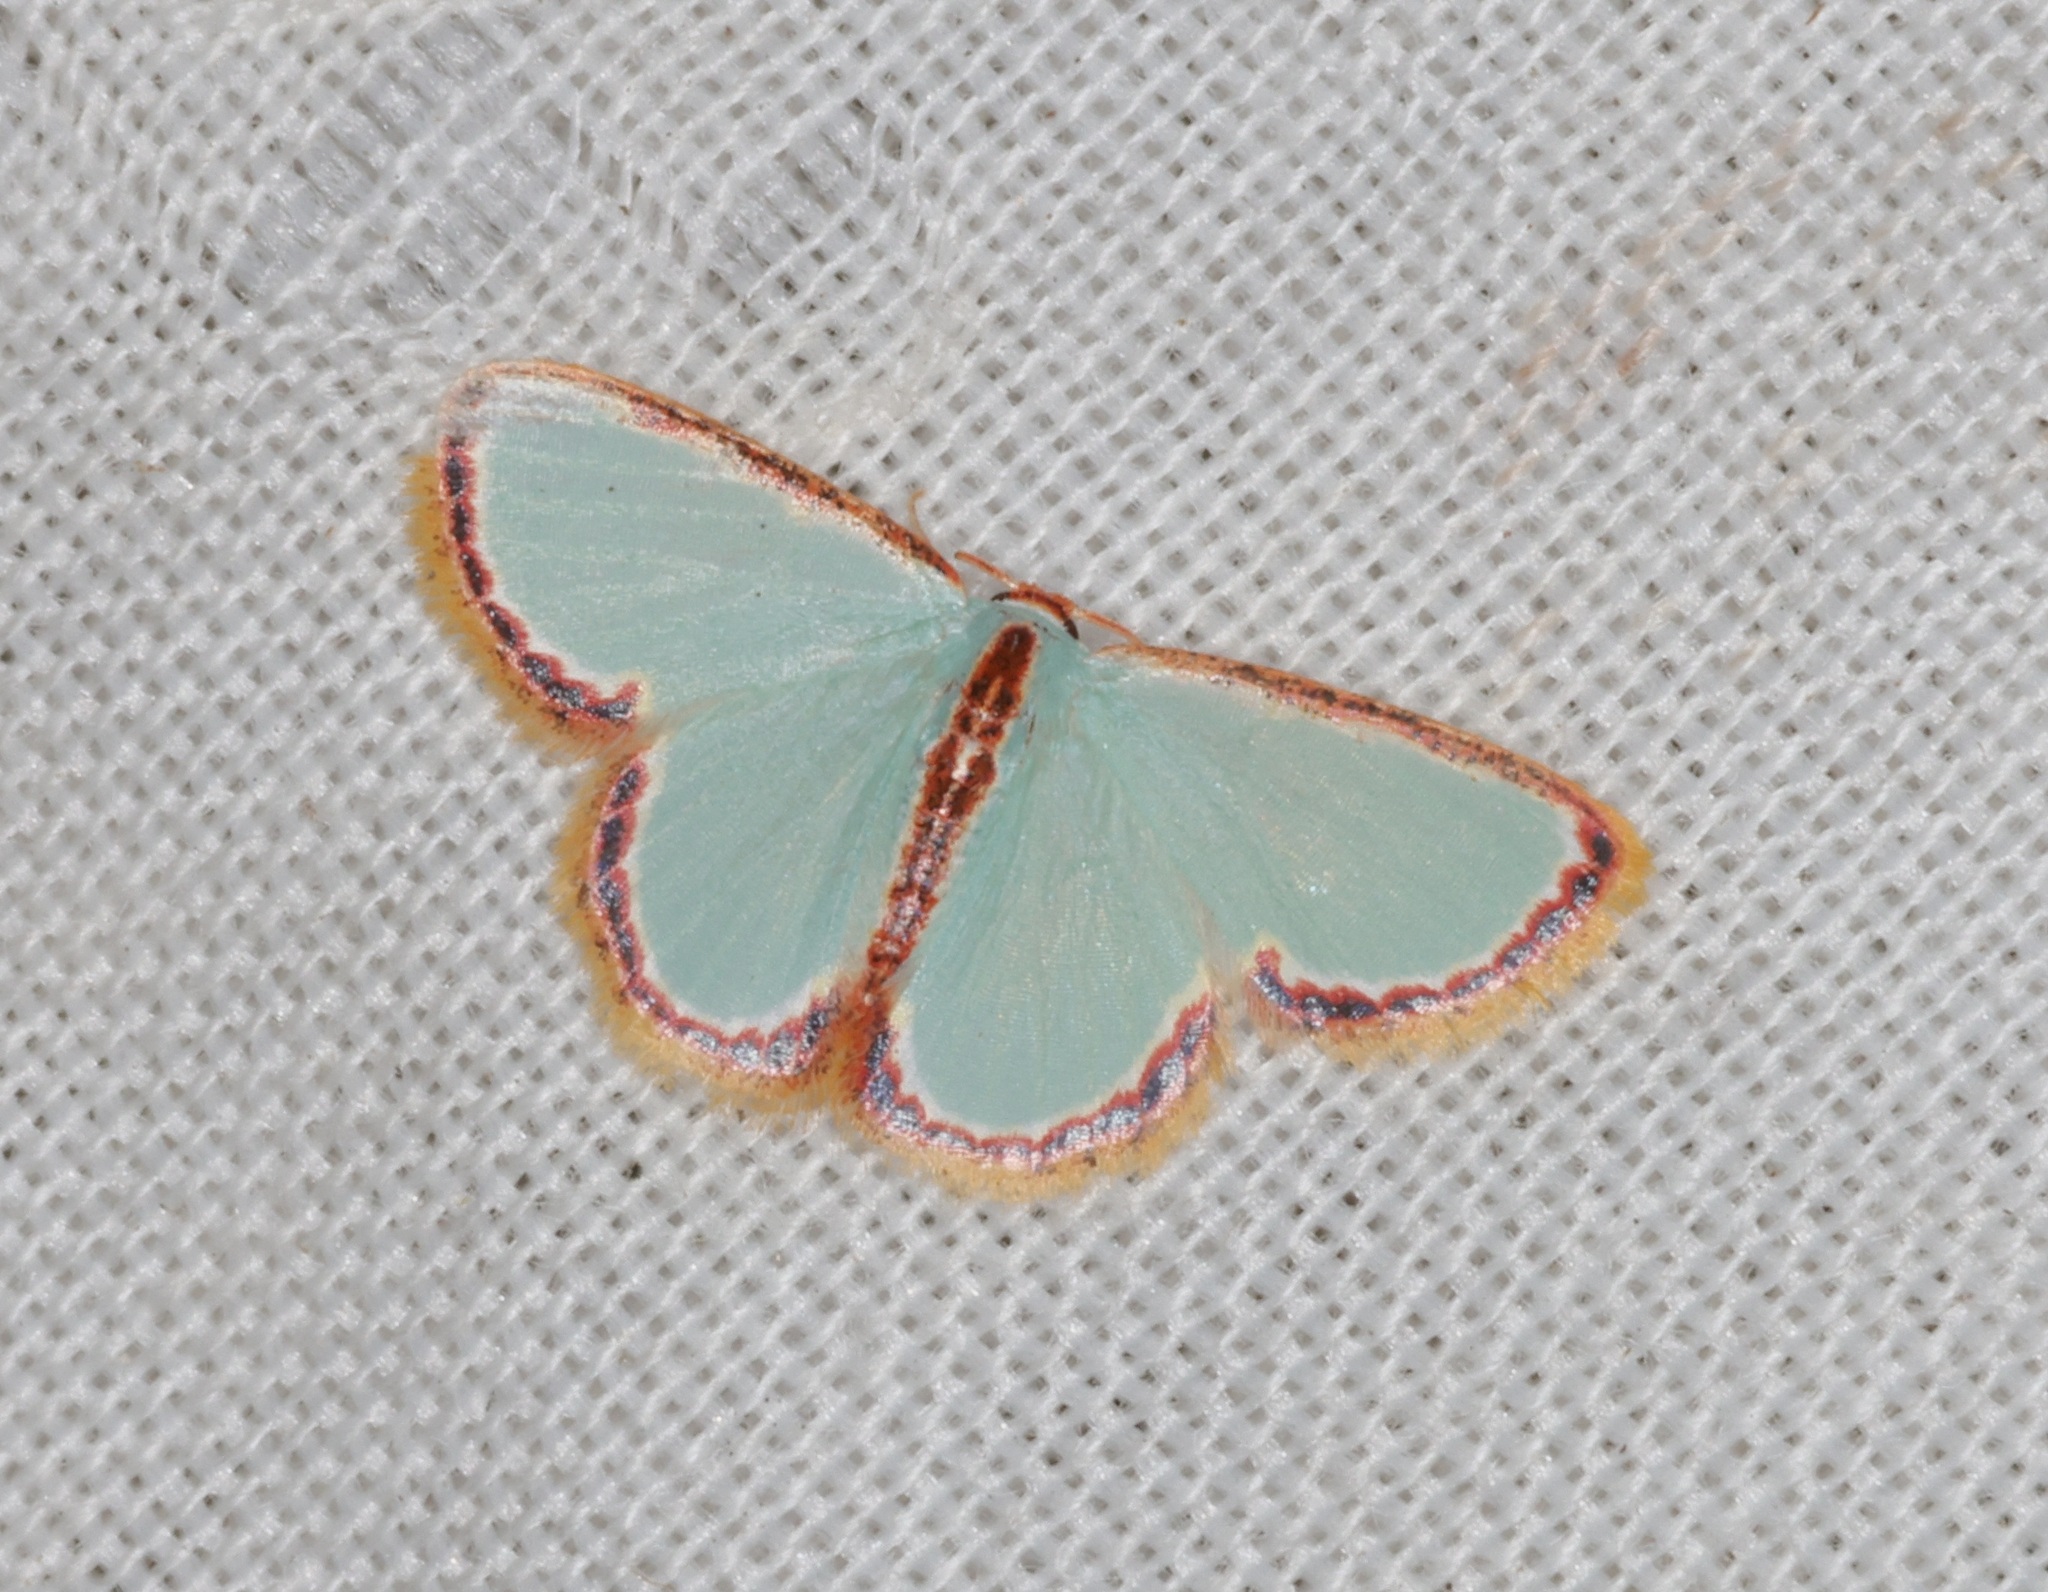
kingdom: Animalia
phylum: Arthropoda
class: Insecta
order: Lepidoptera
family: Geometridae
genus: Comostola
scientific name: Comostola pyrrhogona
